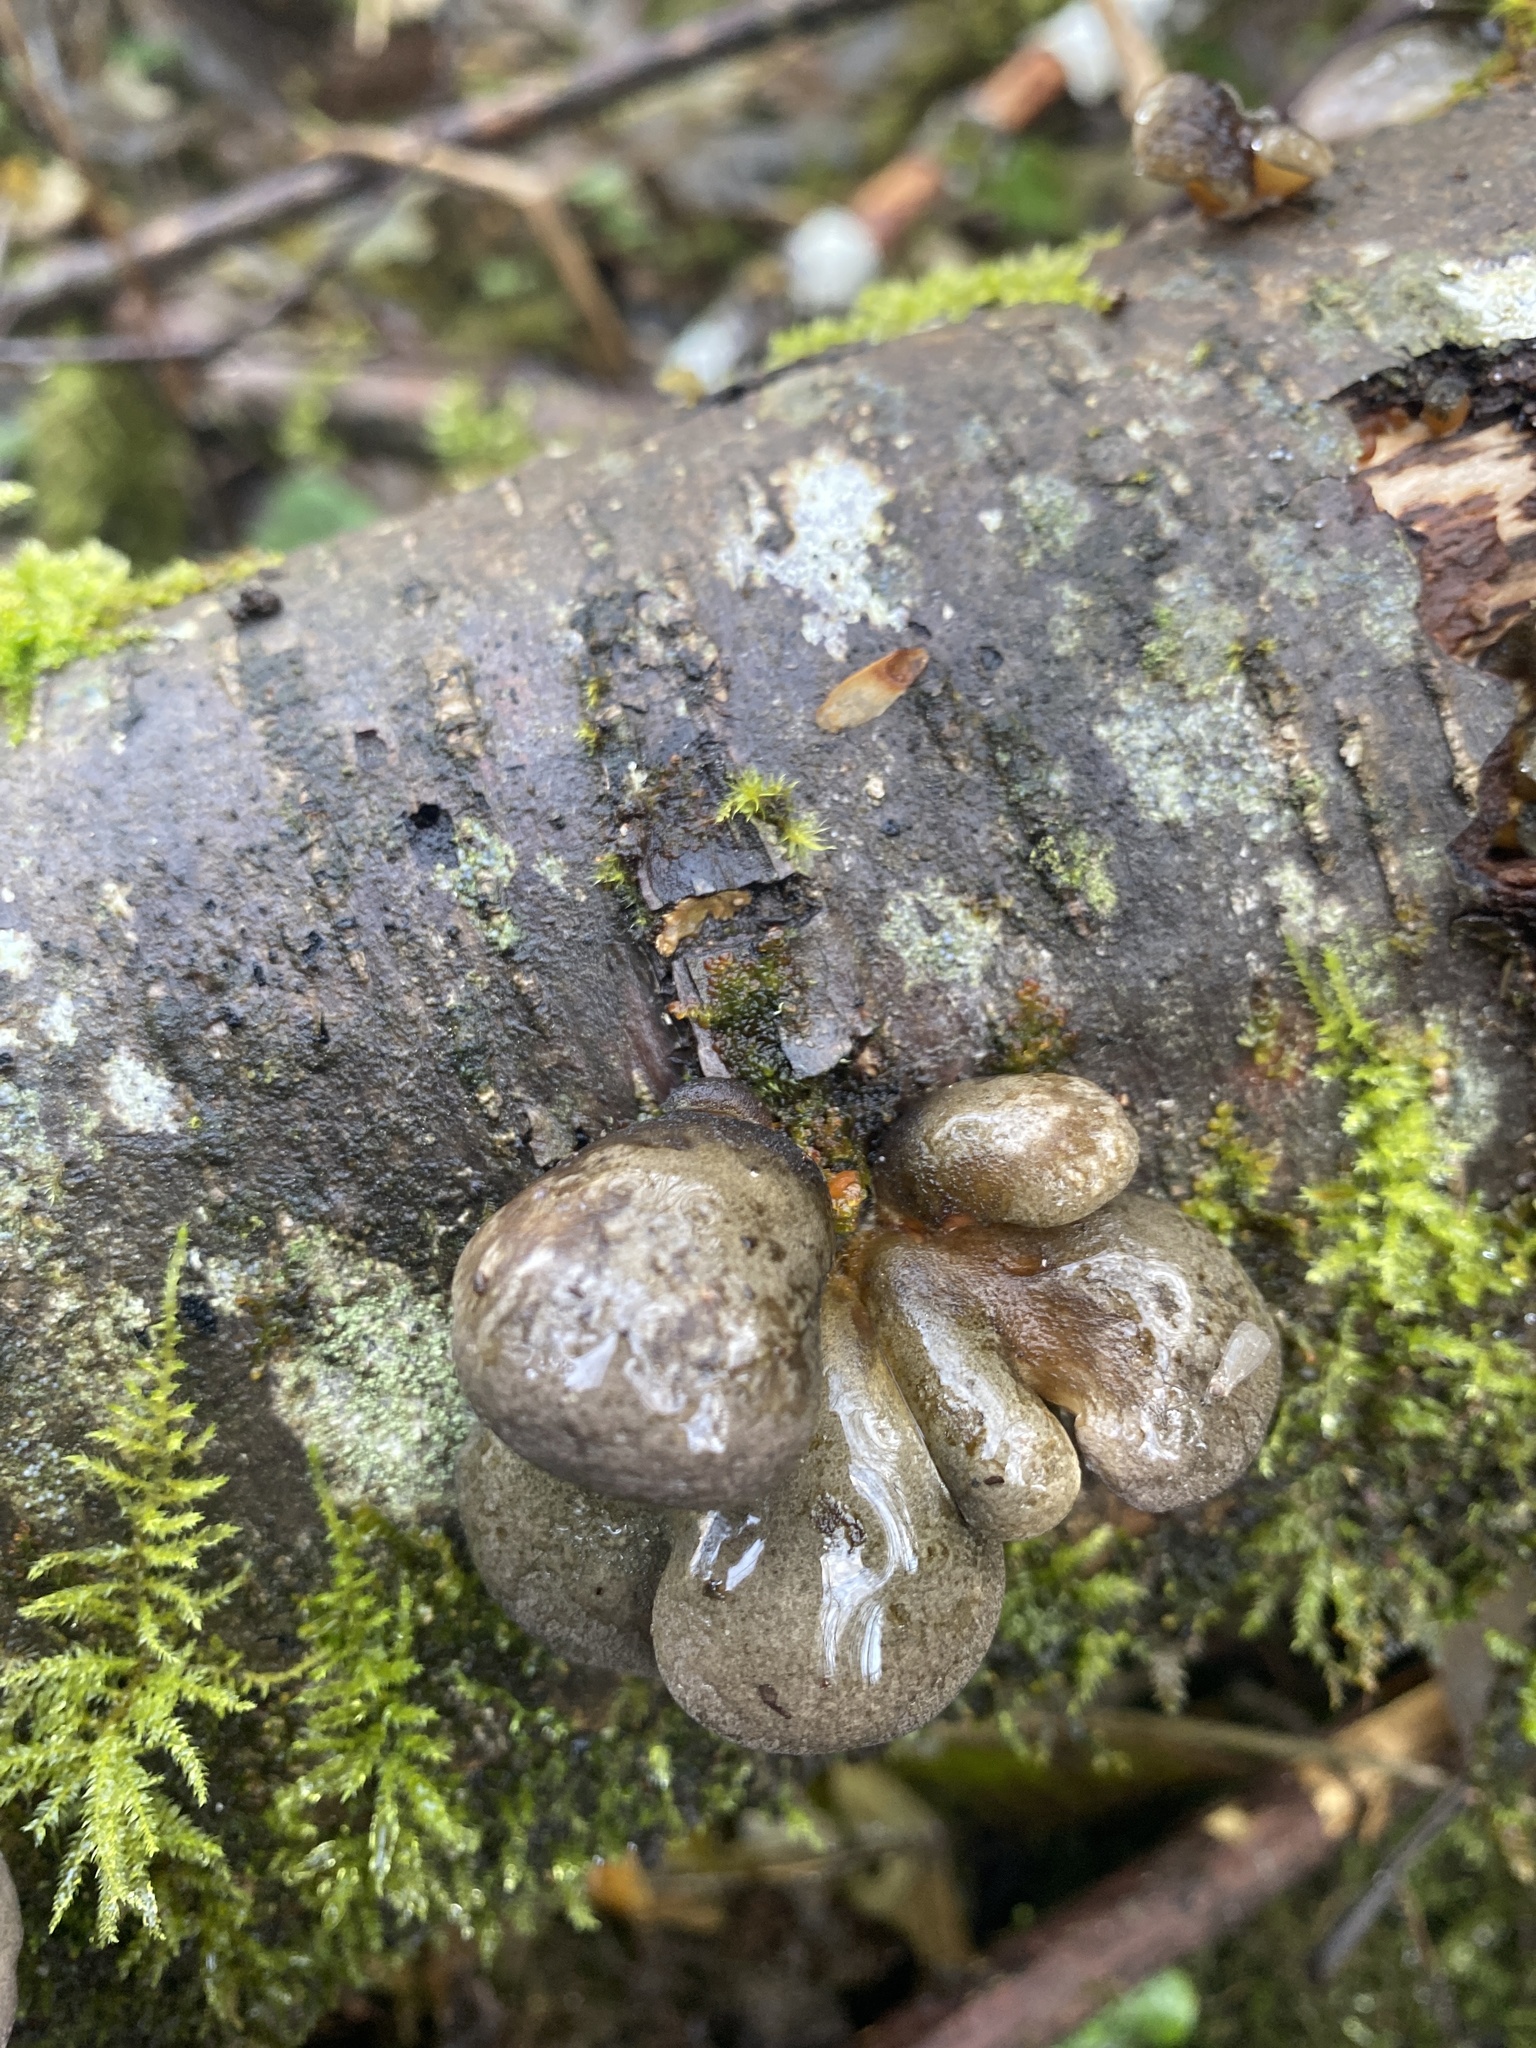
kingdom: Fungi
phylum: Basidiomycota
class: Agaricomycetes
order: Agaricales
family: Sarcomyxaceae
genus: Sarcomyxa
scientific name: Sarcomyxa serotina
